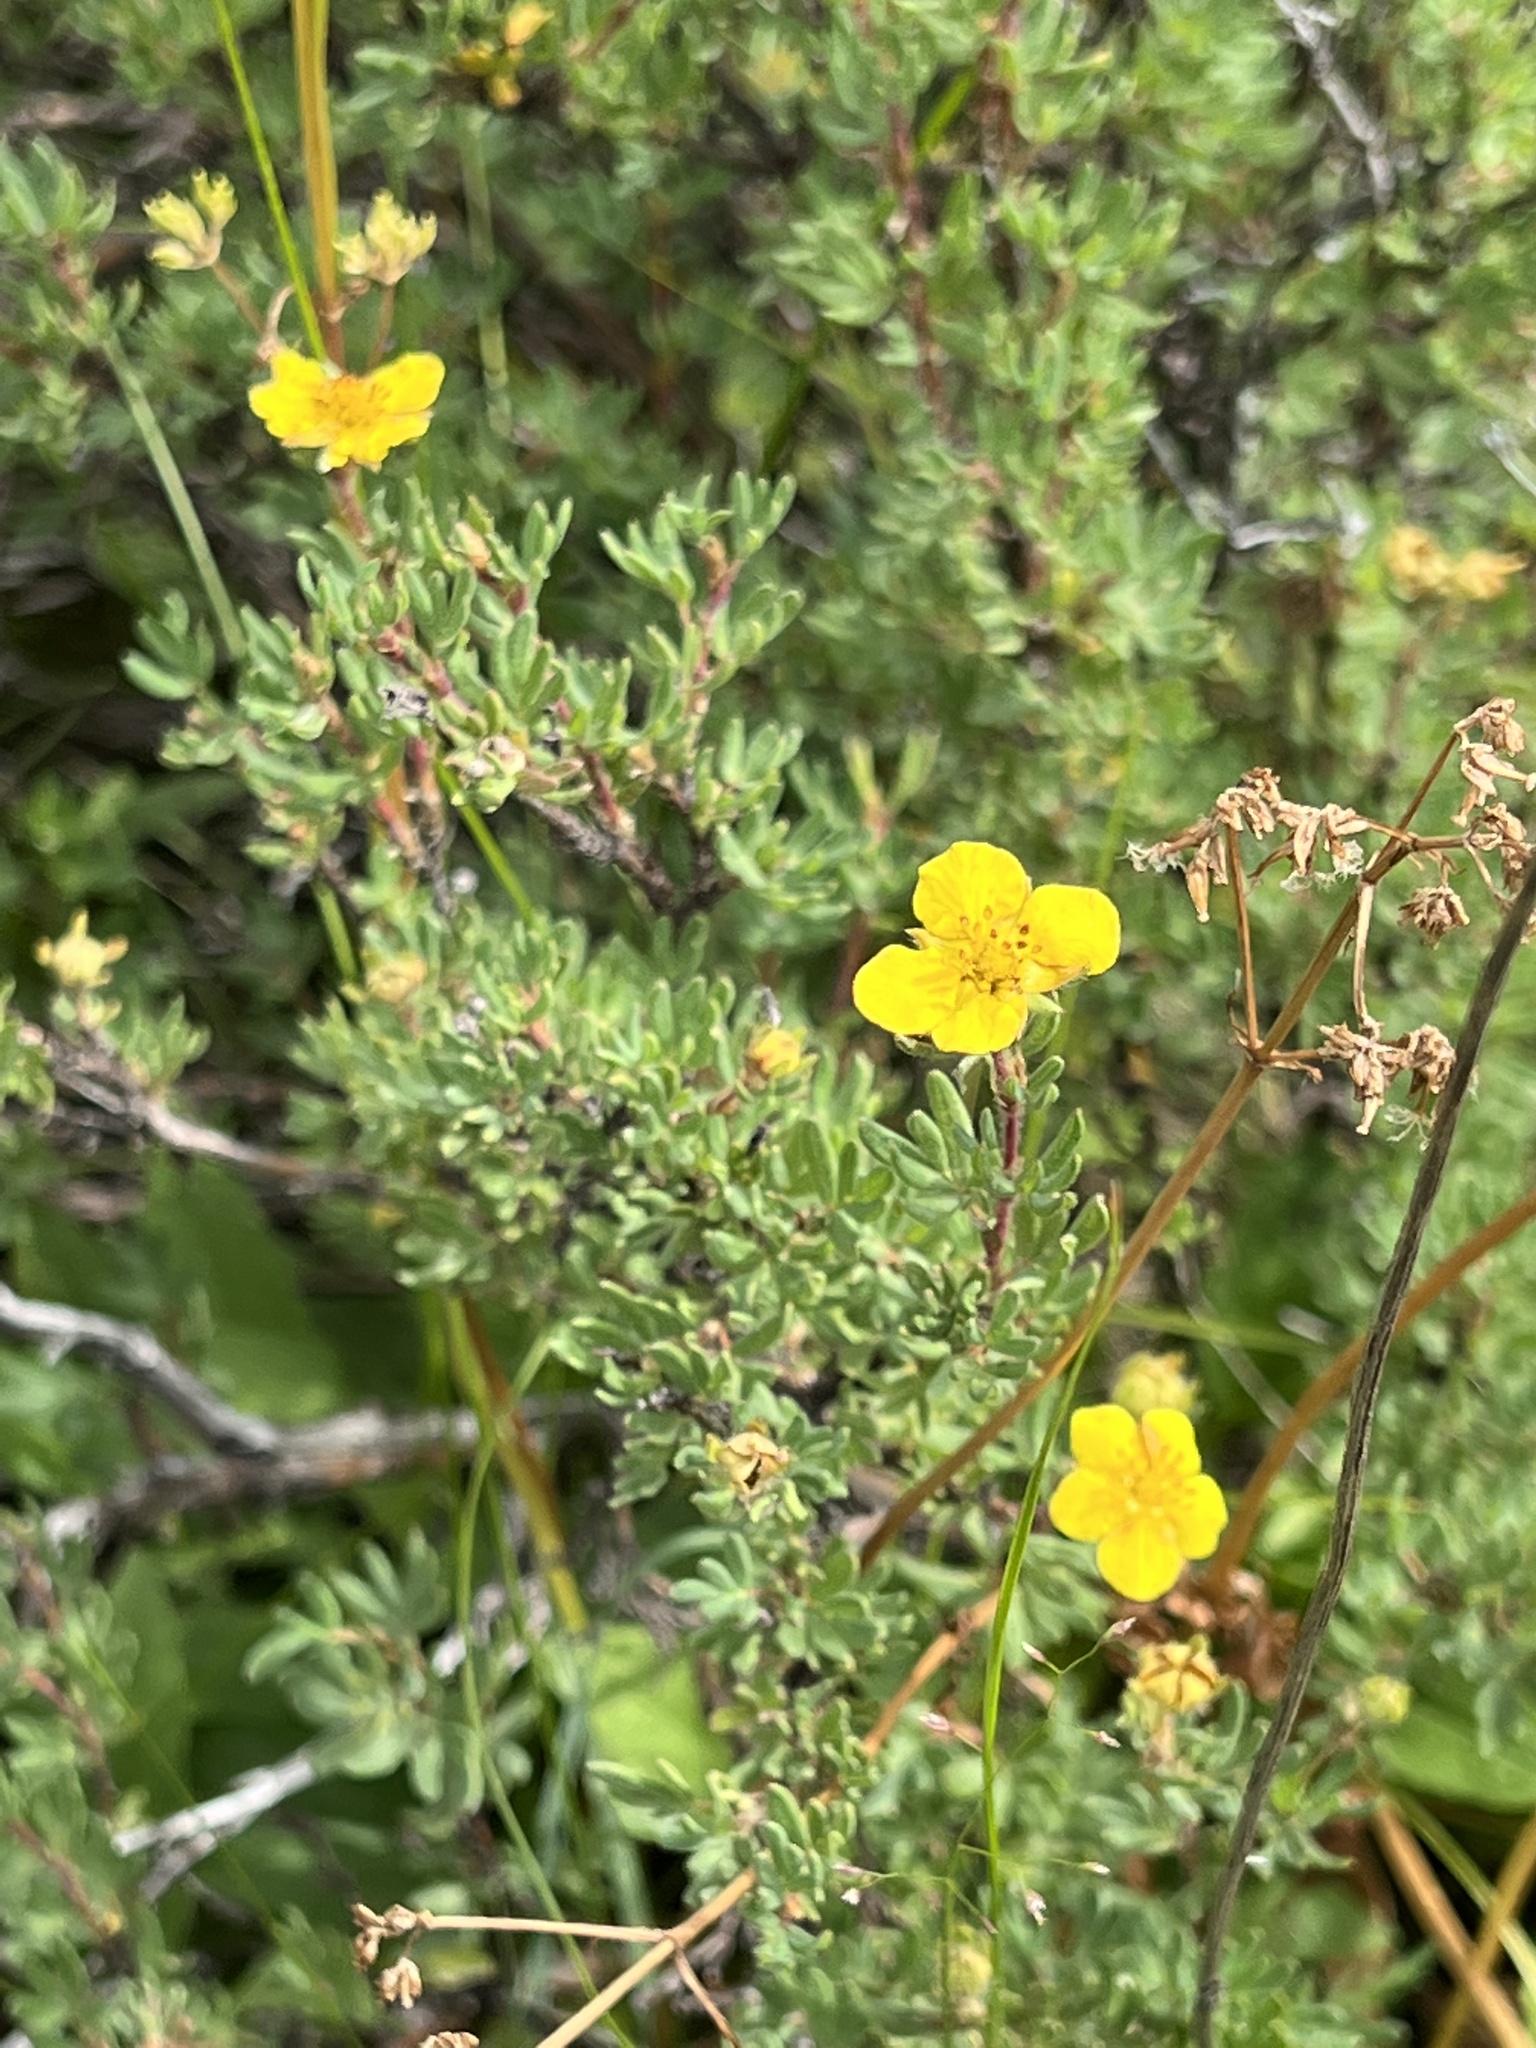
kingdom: Plantae
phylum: Tracheophyta
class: Magnoliopsida
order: Rosales
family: Rosaceae
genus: Dasiphora
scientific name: Dasiphora fruticosa
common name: Shrubby cinquefoil
